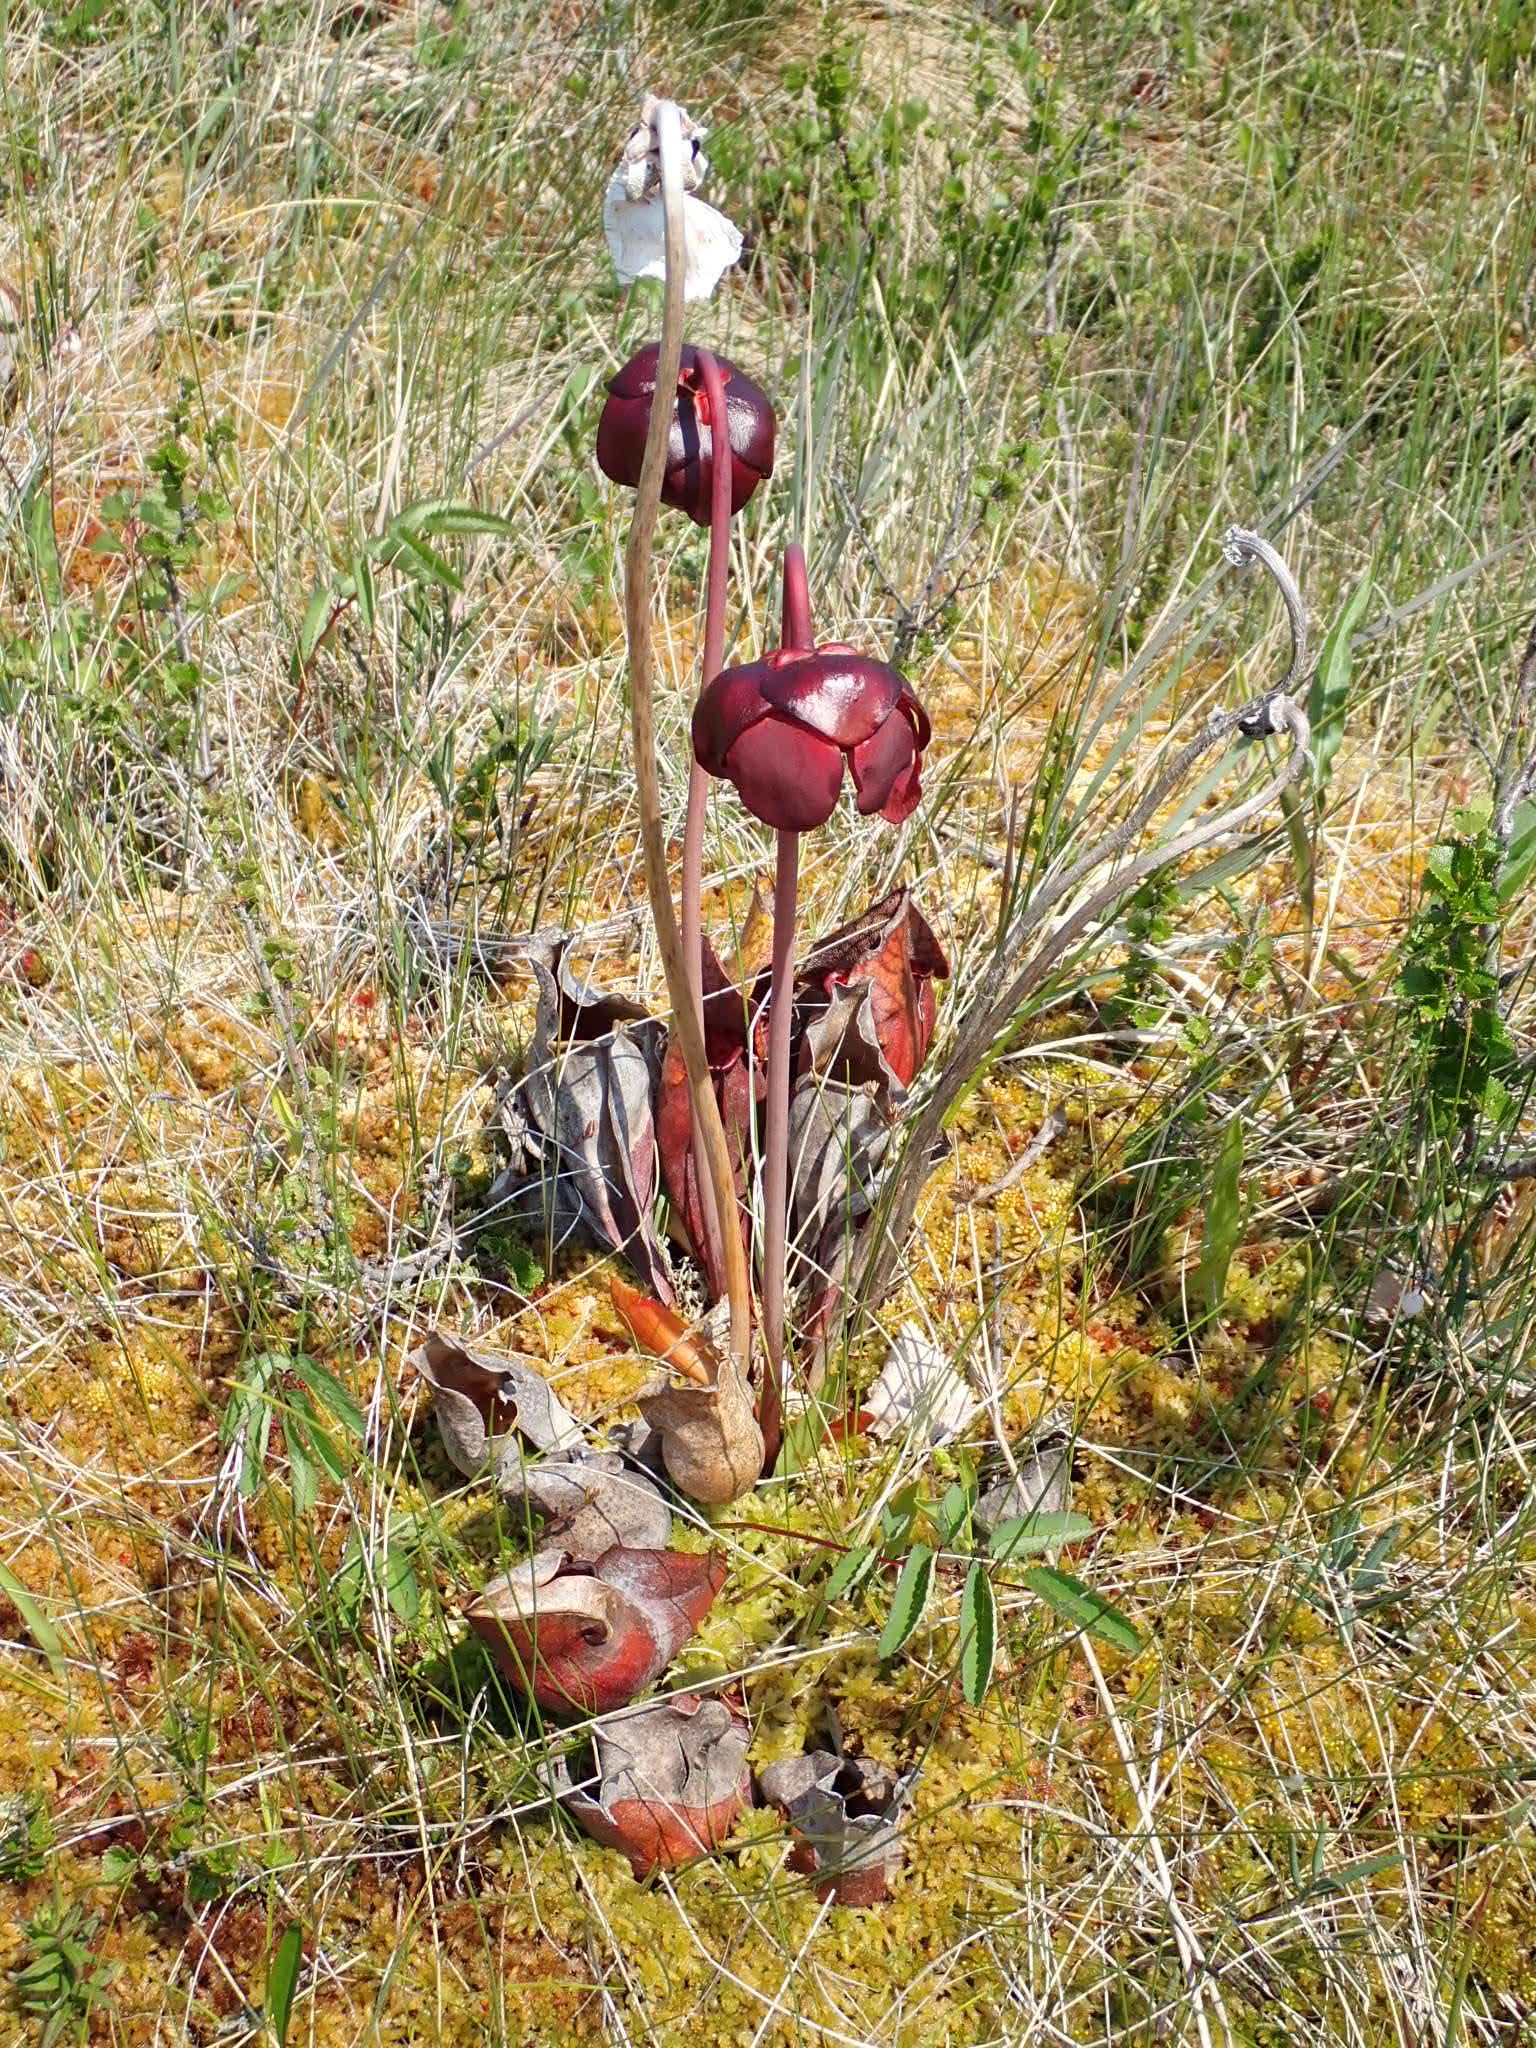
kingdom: Plantae
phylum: Tracheophyta
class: Magnoliopsida
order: Ericales
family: Sarraceniaceae
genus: Sarracenia
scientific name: Sarracenia purpurea
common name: Pitcherplant
